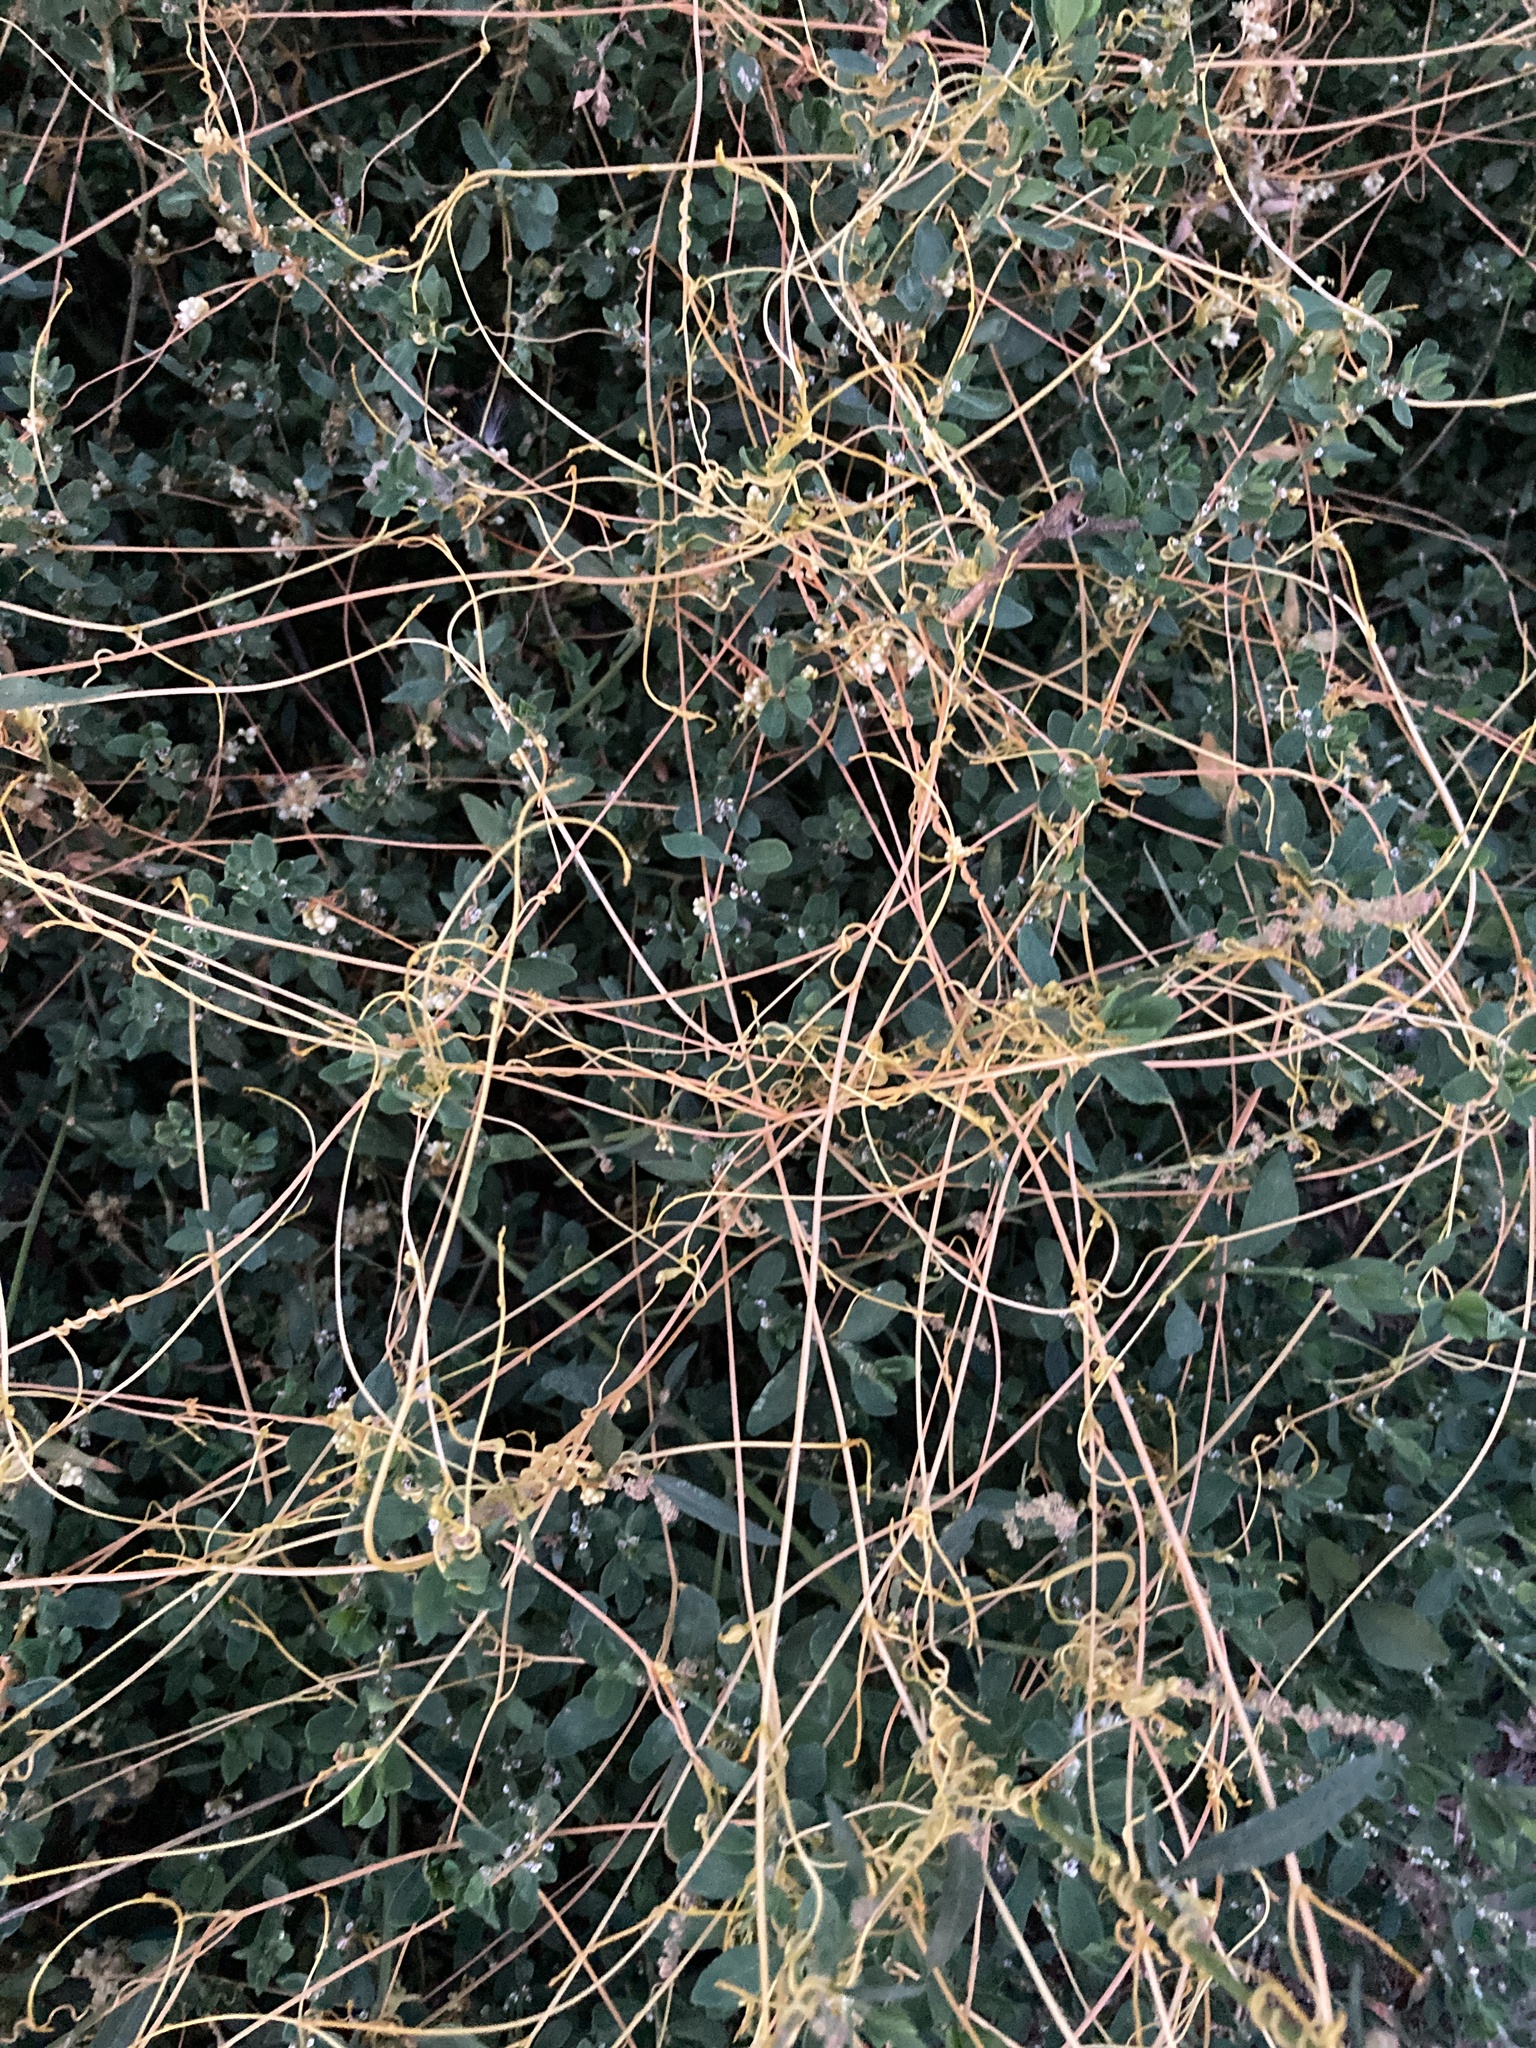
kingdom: Plantae
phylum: Tracheophyta
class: Magnoliopsida
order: Solanales
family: Convolvulaceae
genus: Cuscuta
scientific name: Cuscuta campestris
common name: Yellow dodder
